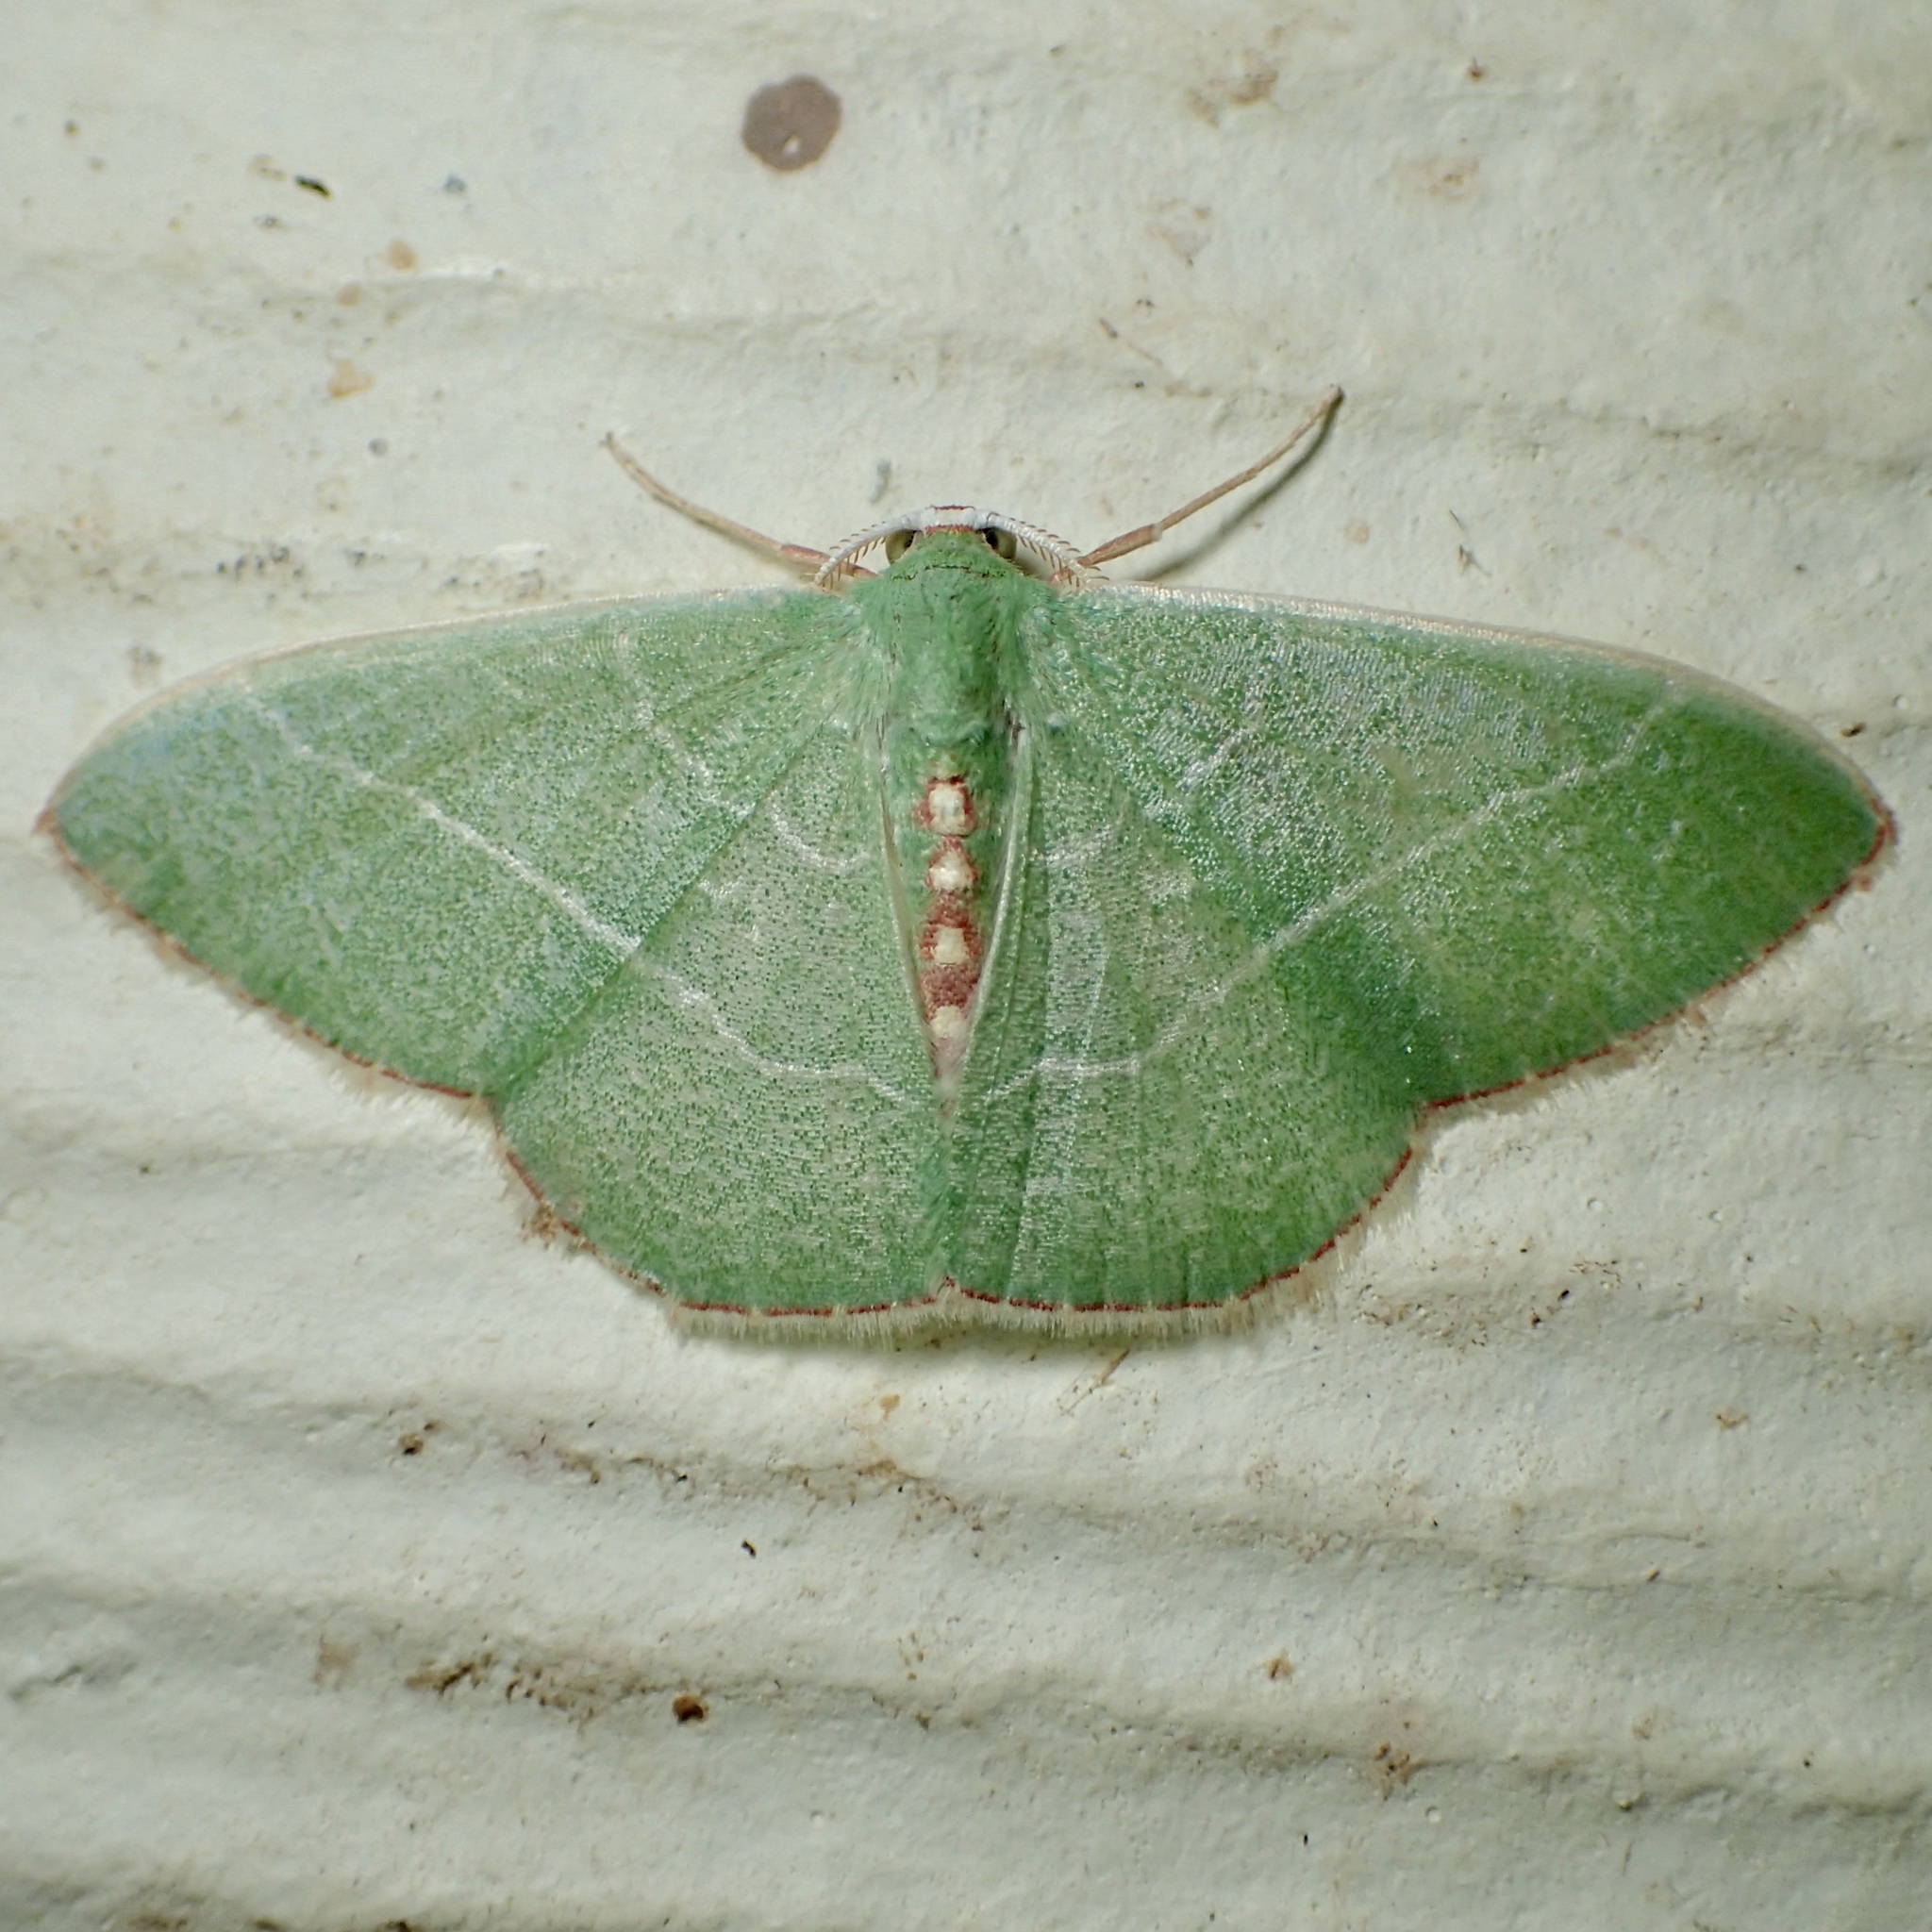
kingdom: Animalia
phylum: Arthropoda
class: Insecta
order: Lepidoptera
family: Geometridae
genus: Nemoria
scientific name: Nemoria festaria
